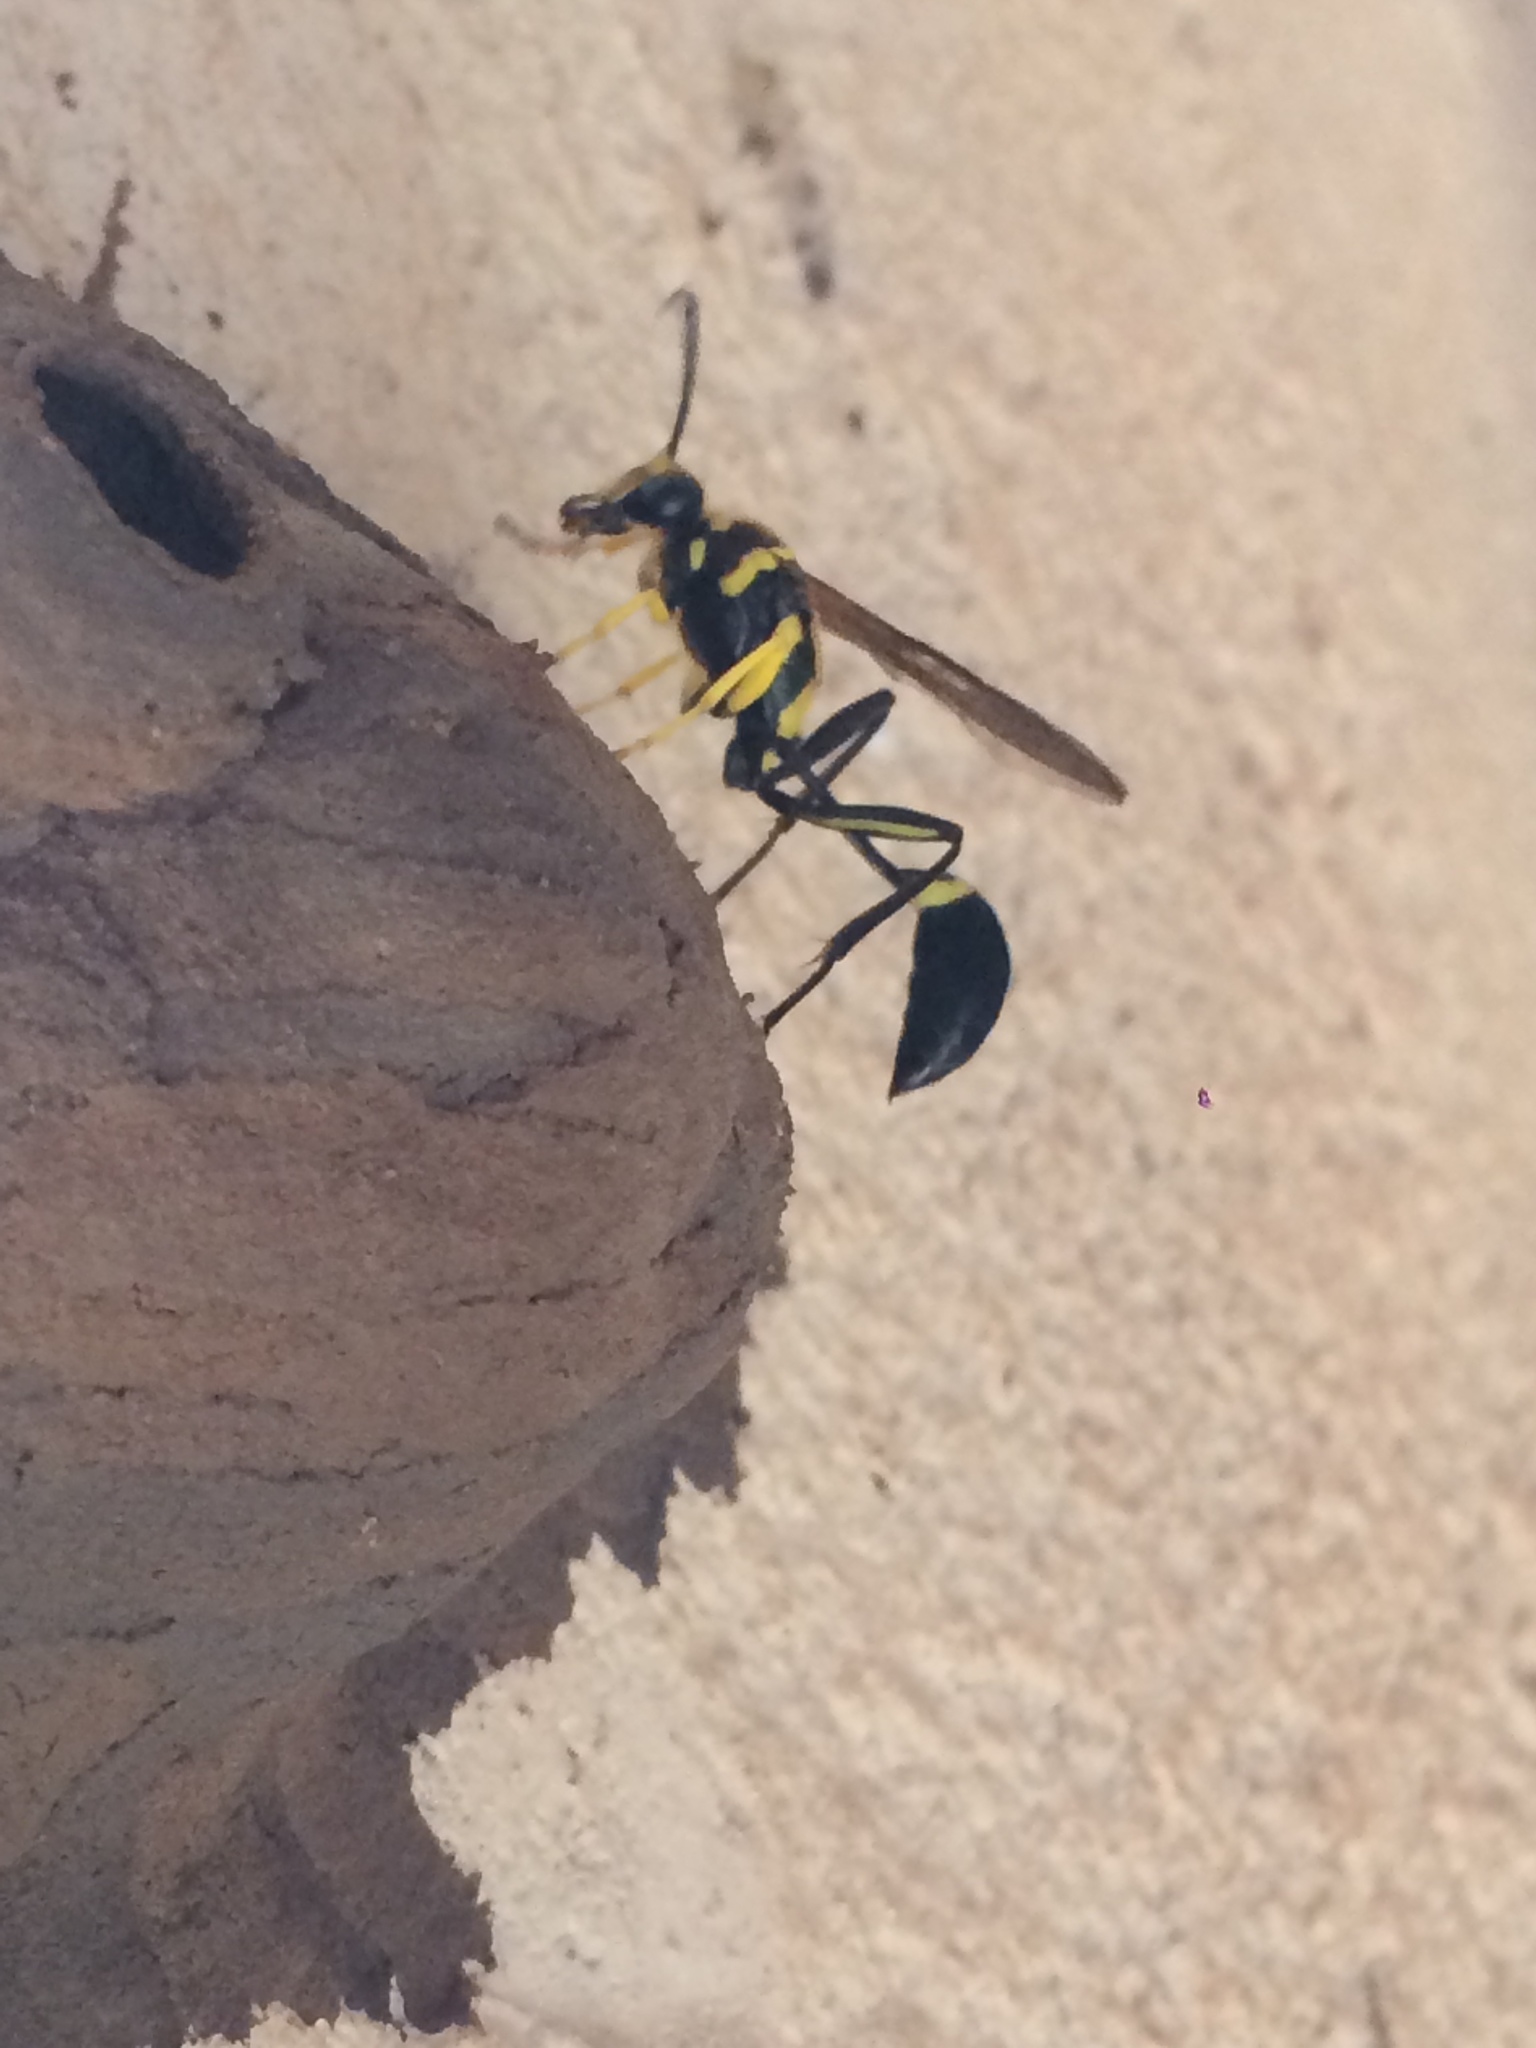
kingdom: Animalia
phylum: Arthropoda
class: Insecta
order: Hymenoptera
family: Sphecidae
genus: Sceliphron
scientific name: Sceliphron fistularium
